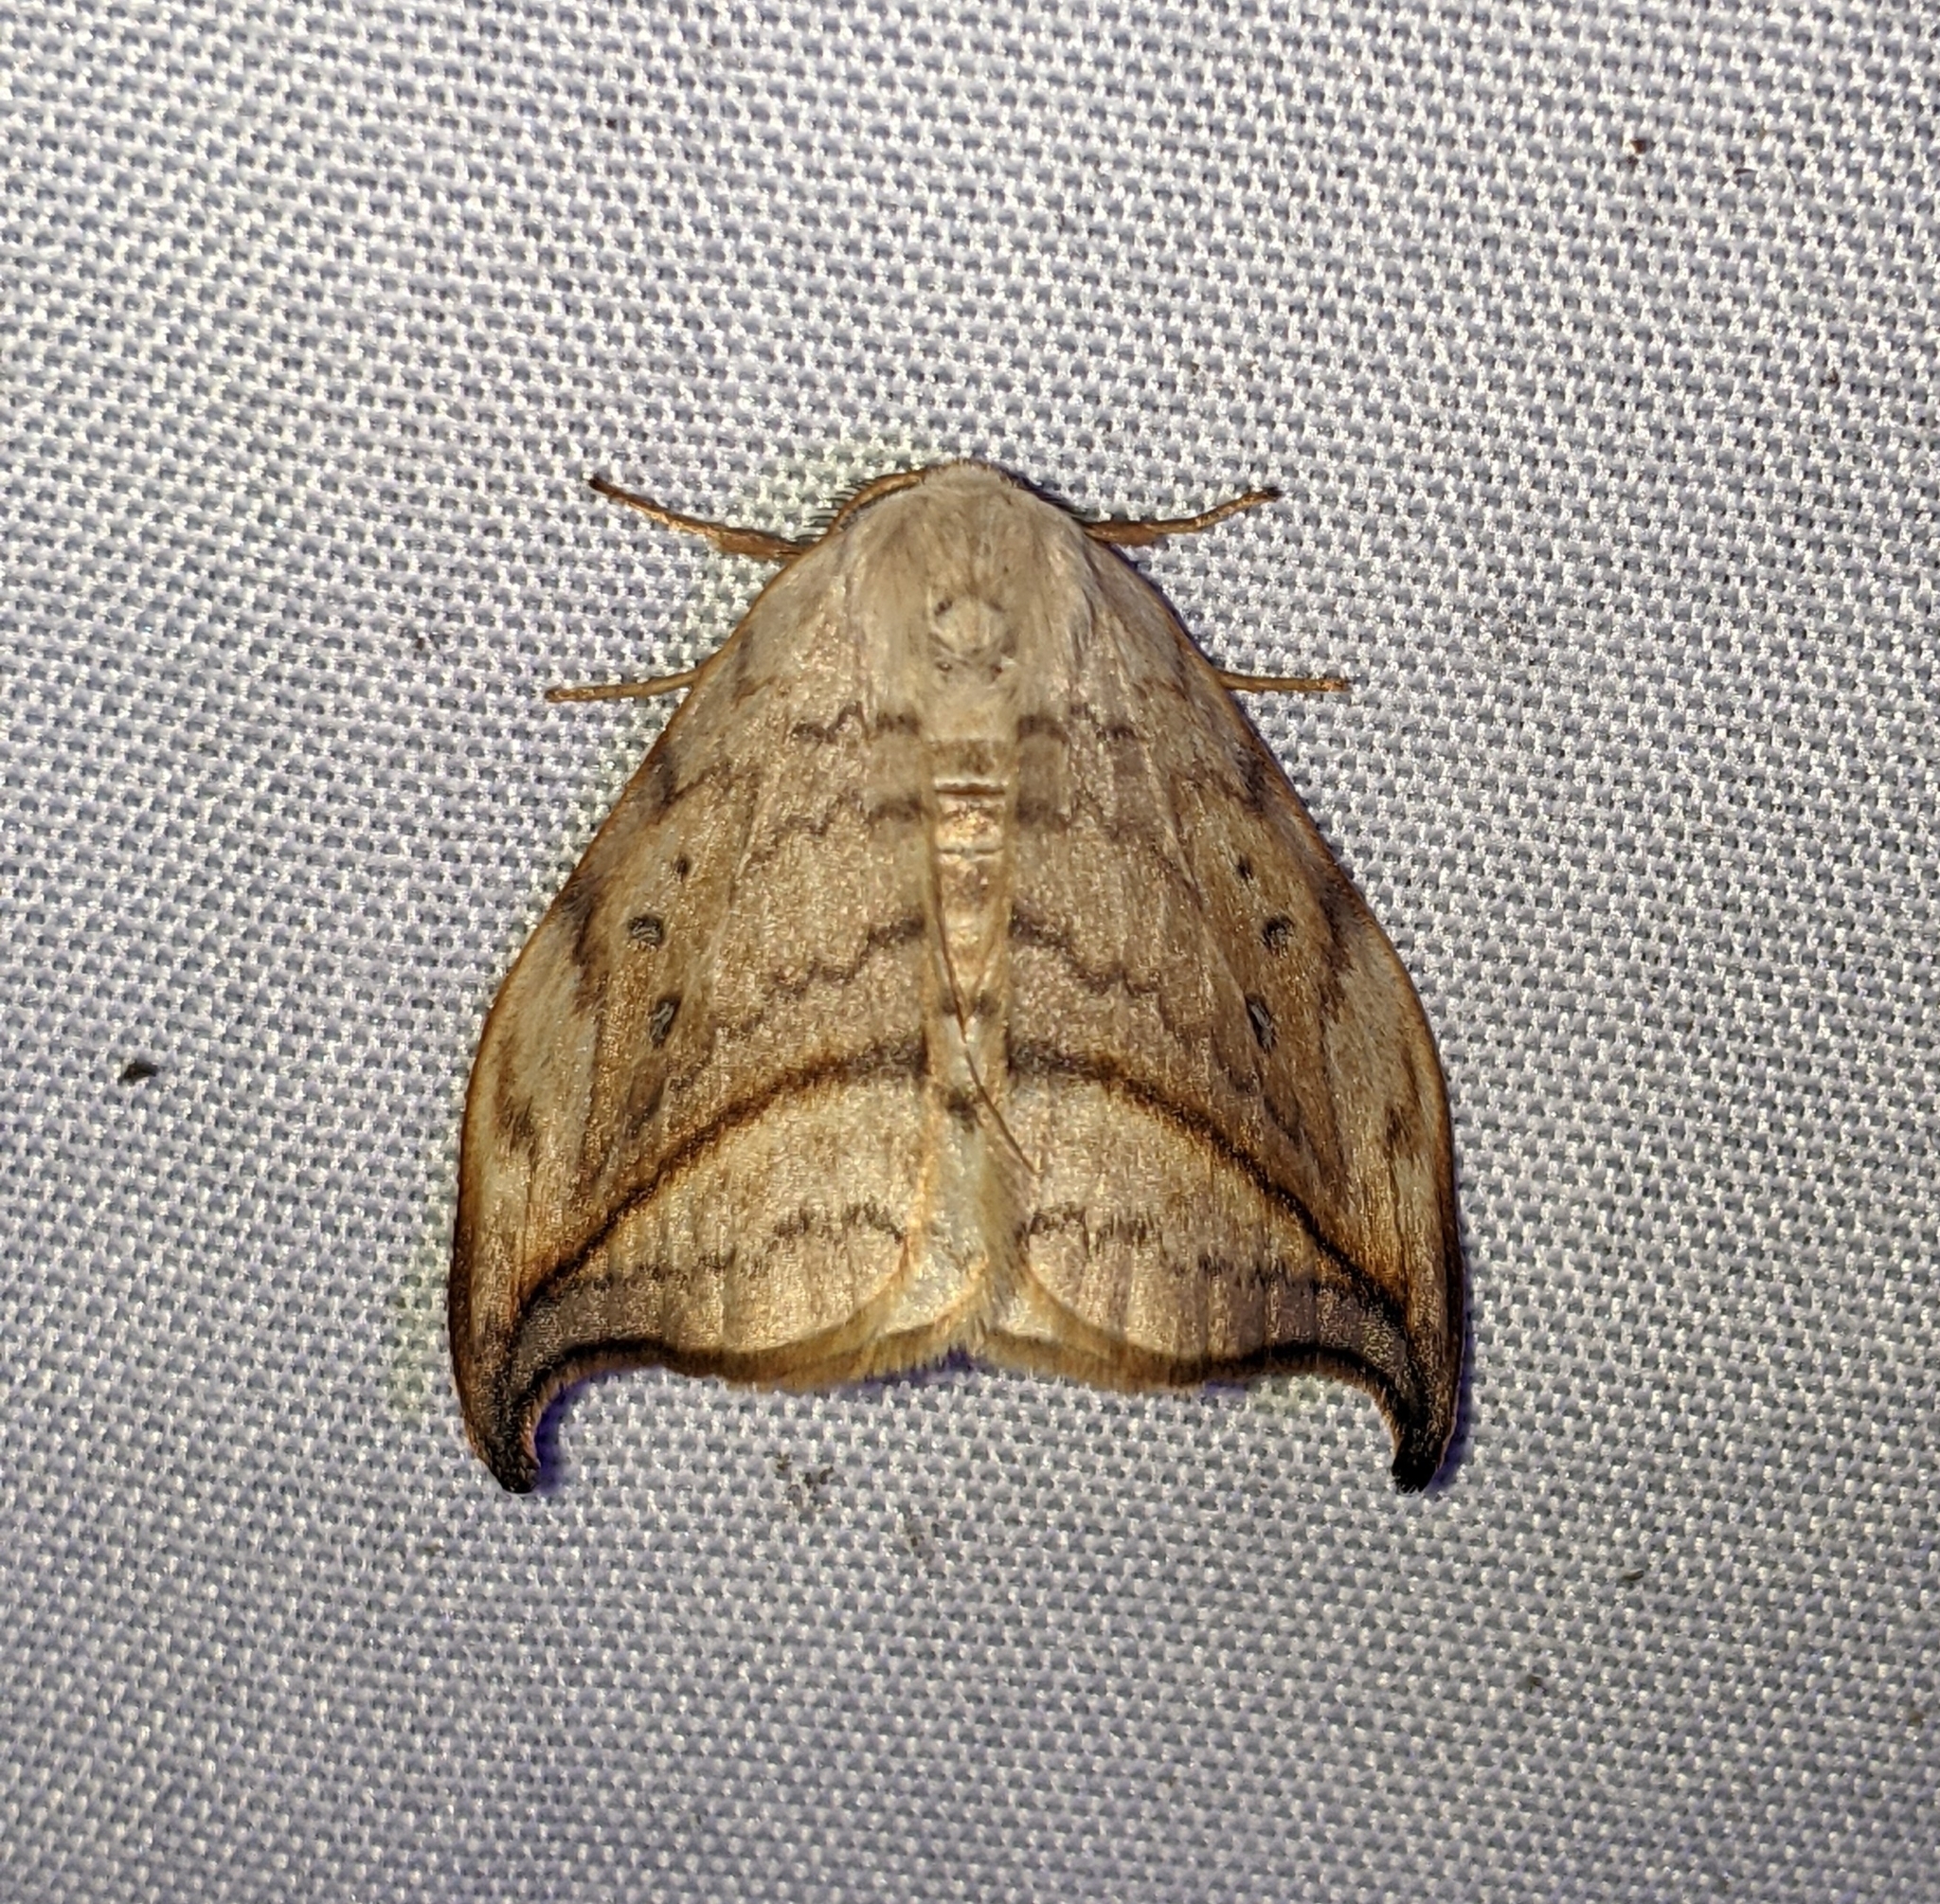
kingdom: Animalia
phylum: Arthropoda
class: Insecta
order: Lepidoptera
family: Drepanidae
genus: Drepana
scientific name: Drepana arcuata
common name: Arched hooktip moth
